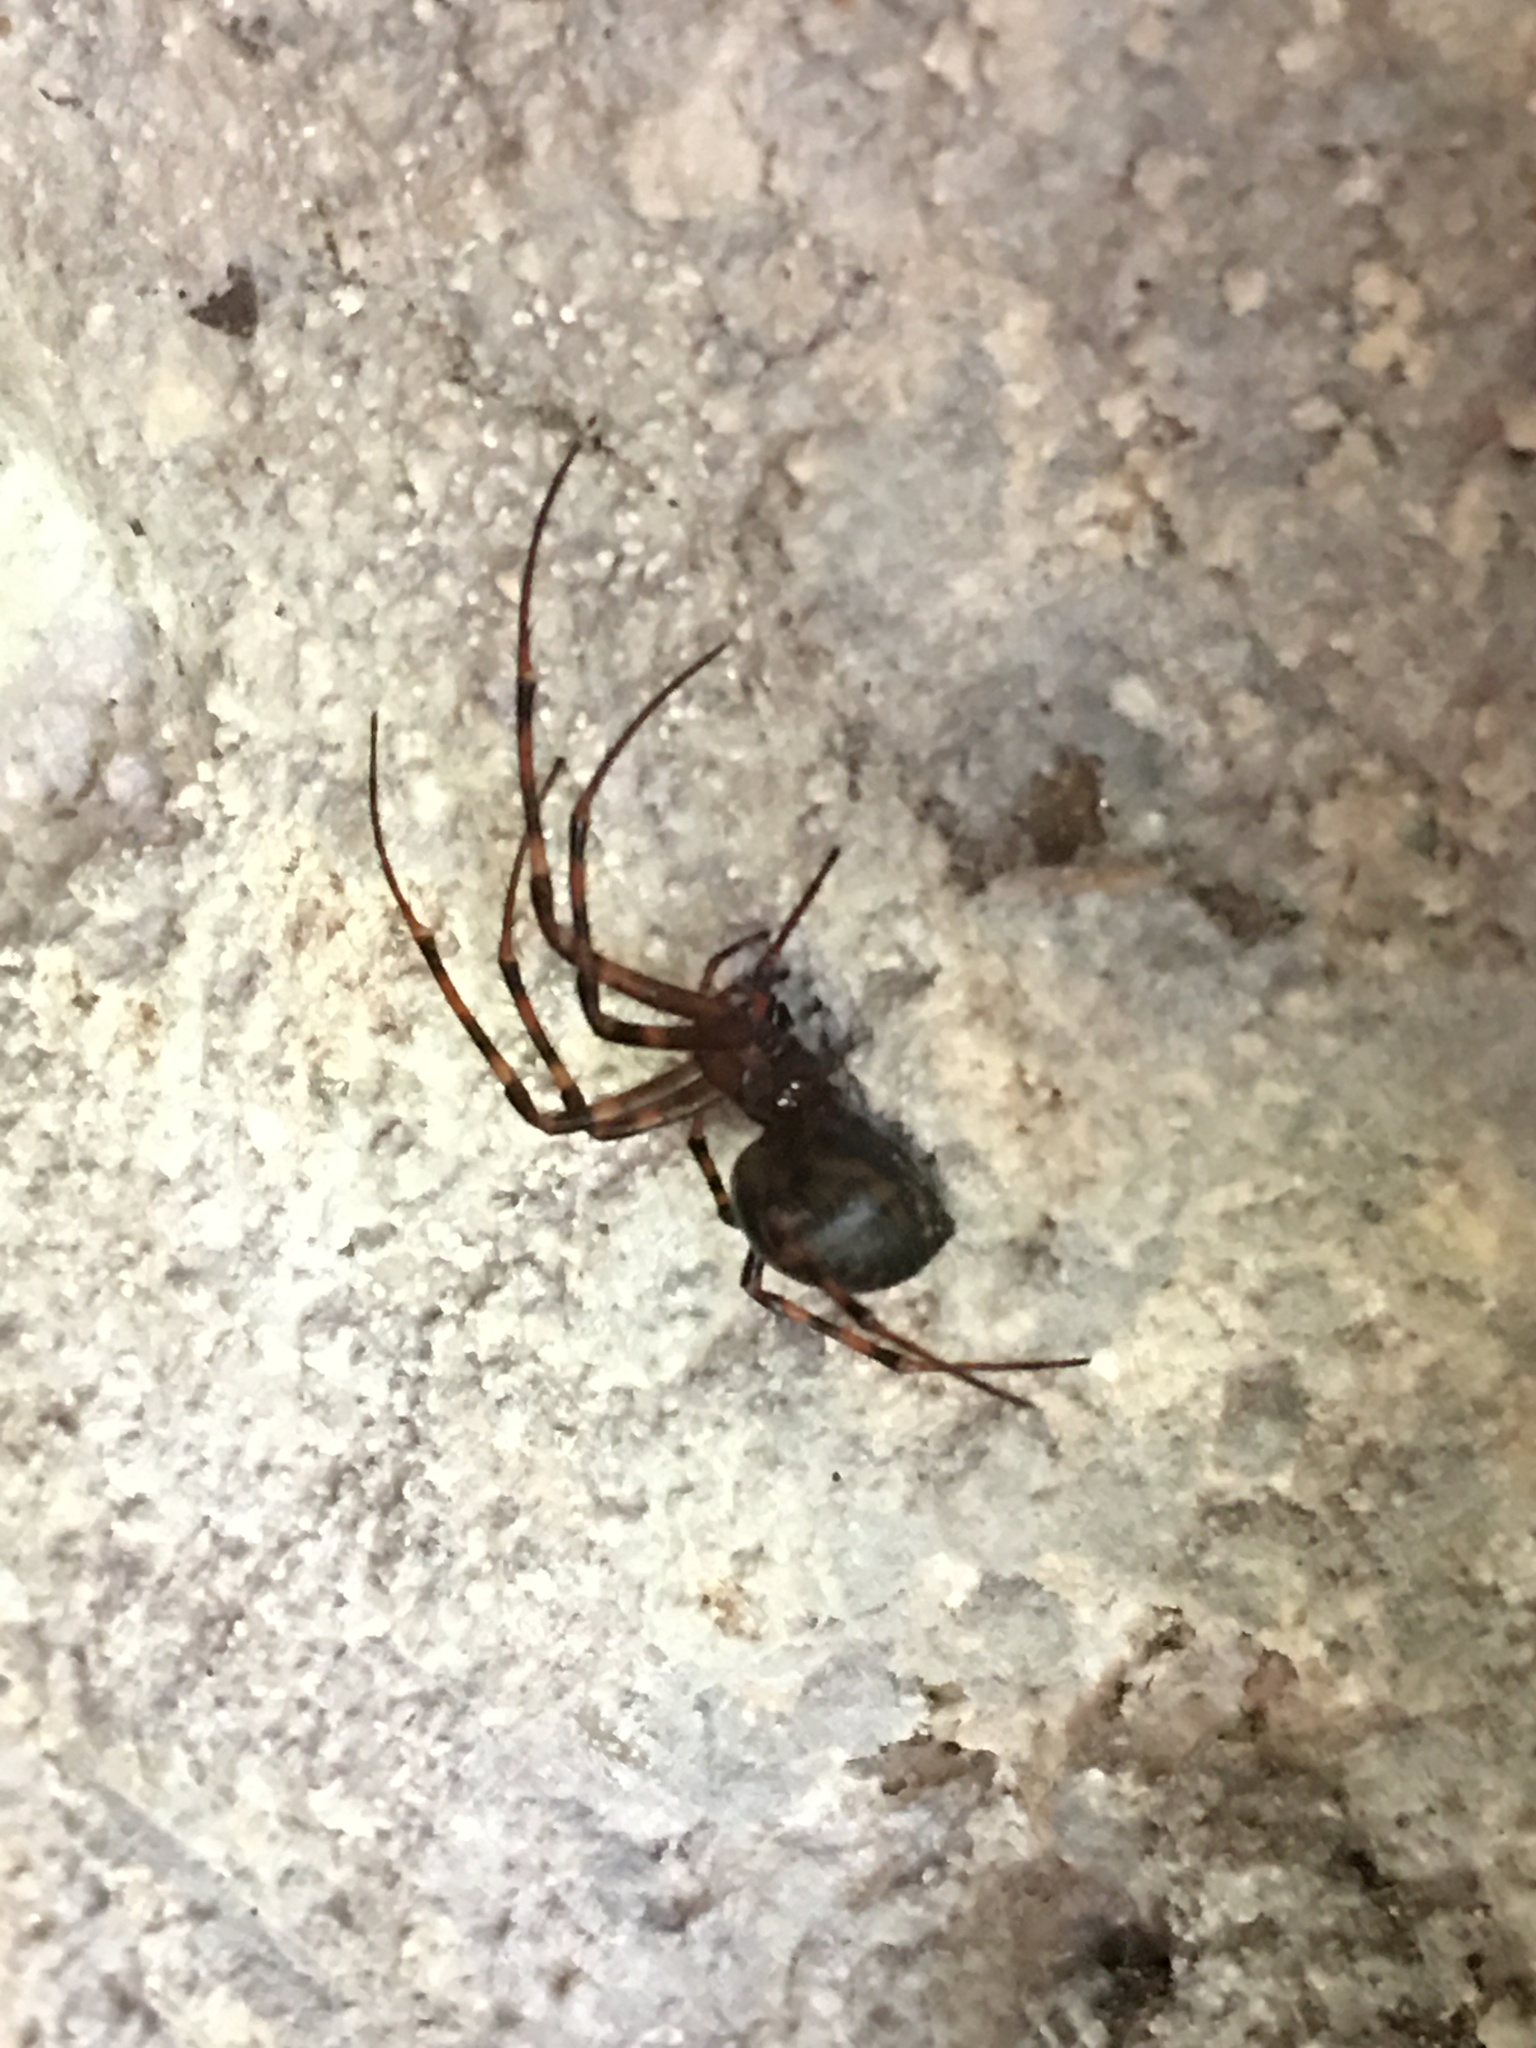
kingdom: Animalia
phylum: Arthropoda
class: Arachnida
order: Araneae
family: Tetragnathidae
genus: Meta
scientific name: Meta menardi
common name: Cave spider
